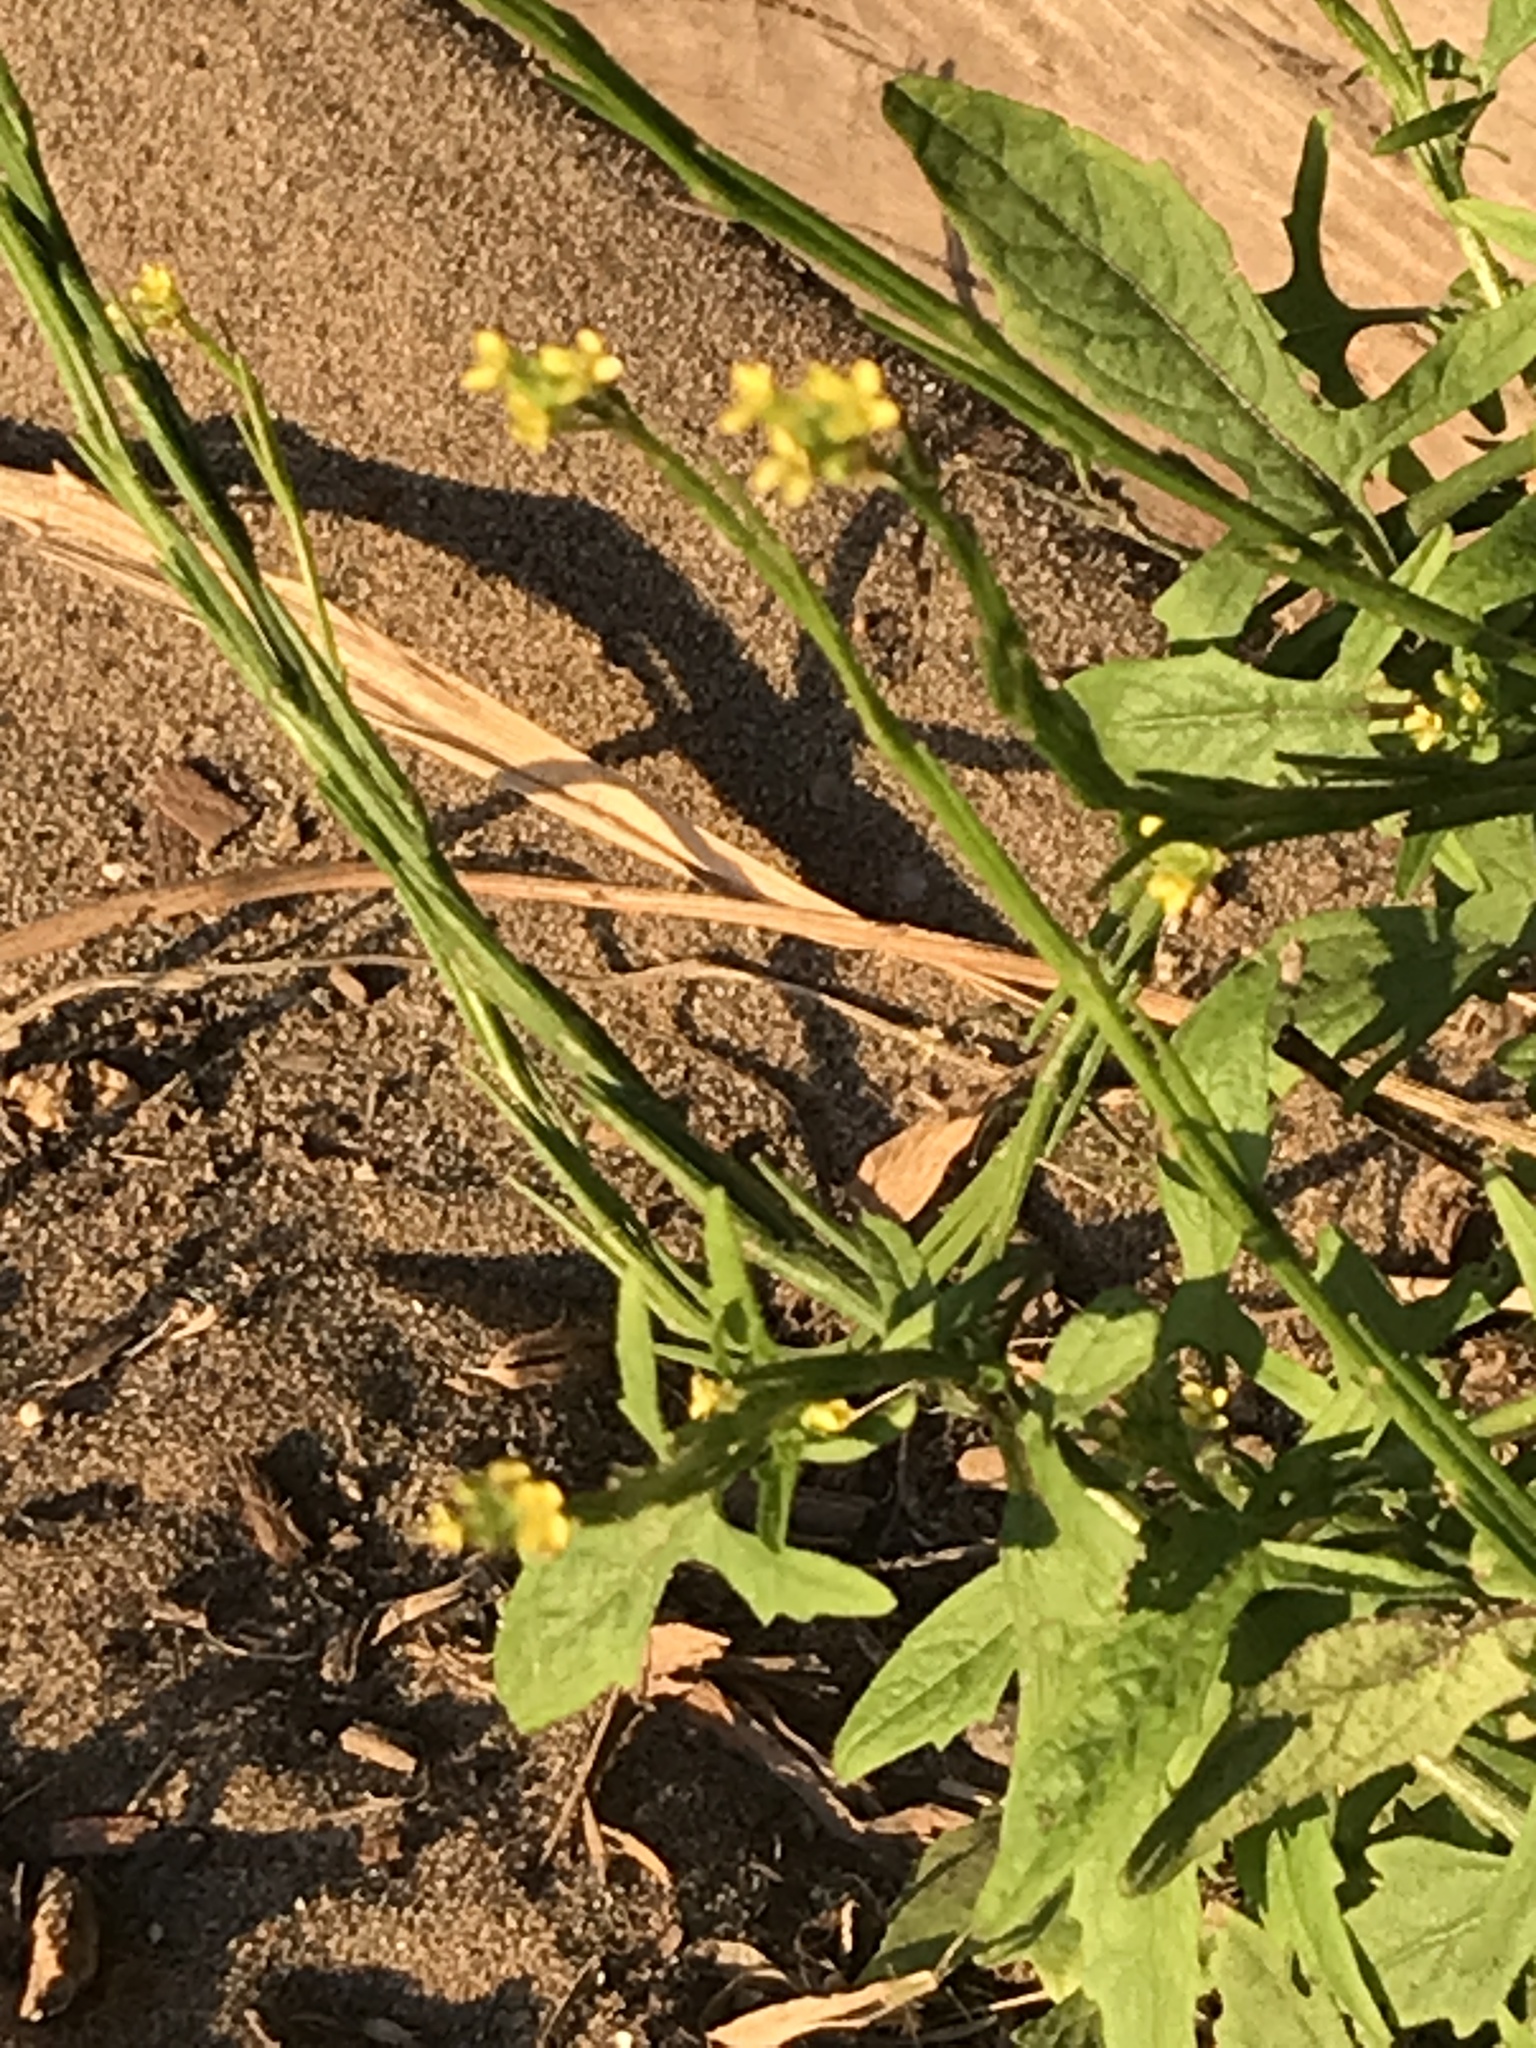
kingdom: Plantae
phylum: Tracheophyta
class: Magnoliopsida
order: Brassicales
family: Brassicaceae
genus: Sisymbrium
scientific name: Sisymbrium officinale
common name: Hedge mustard
